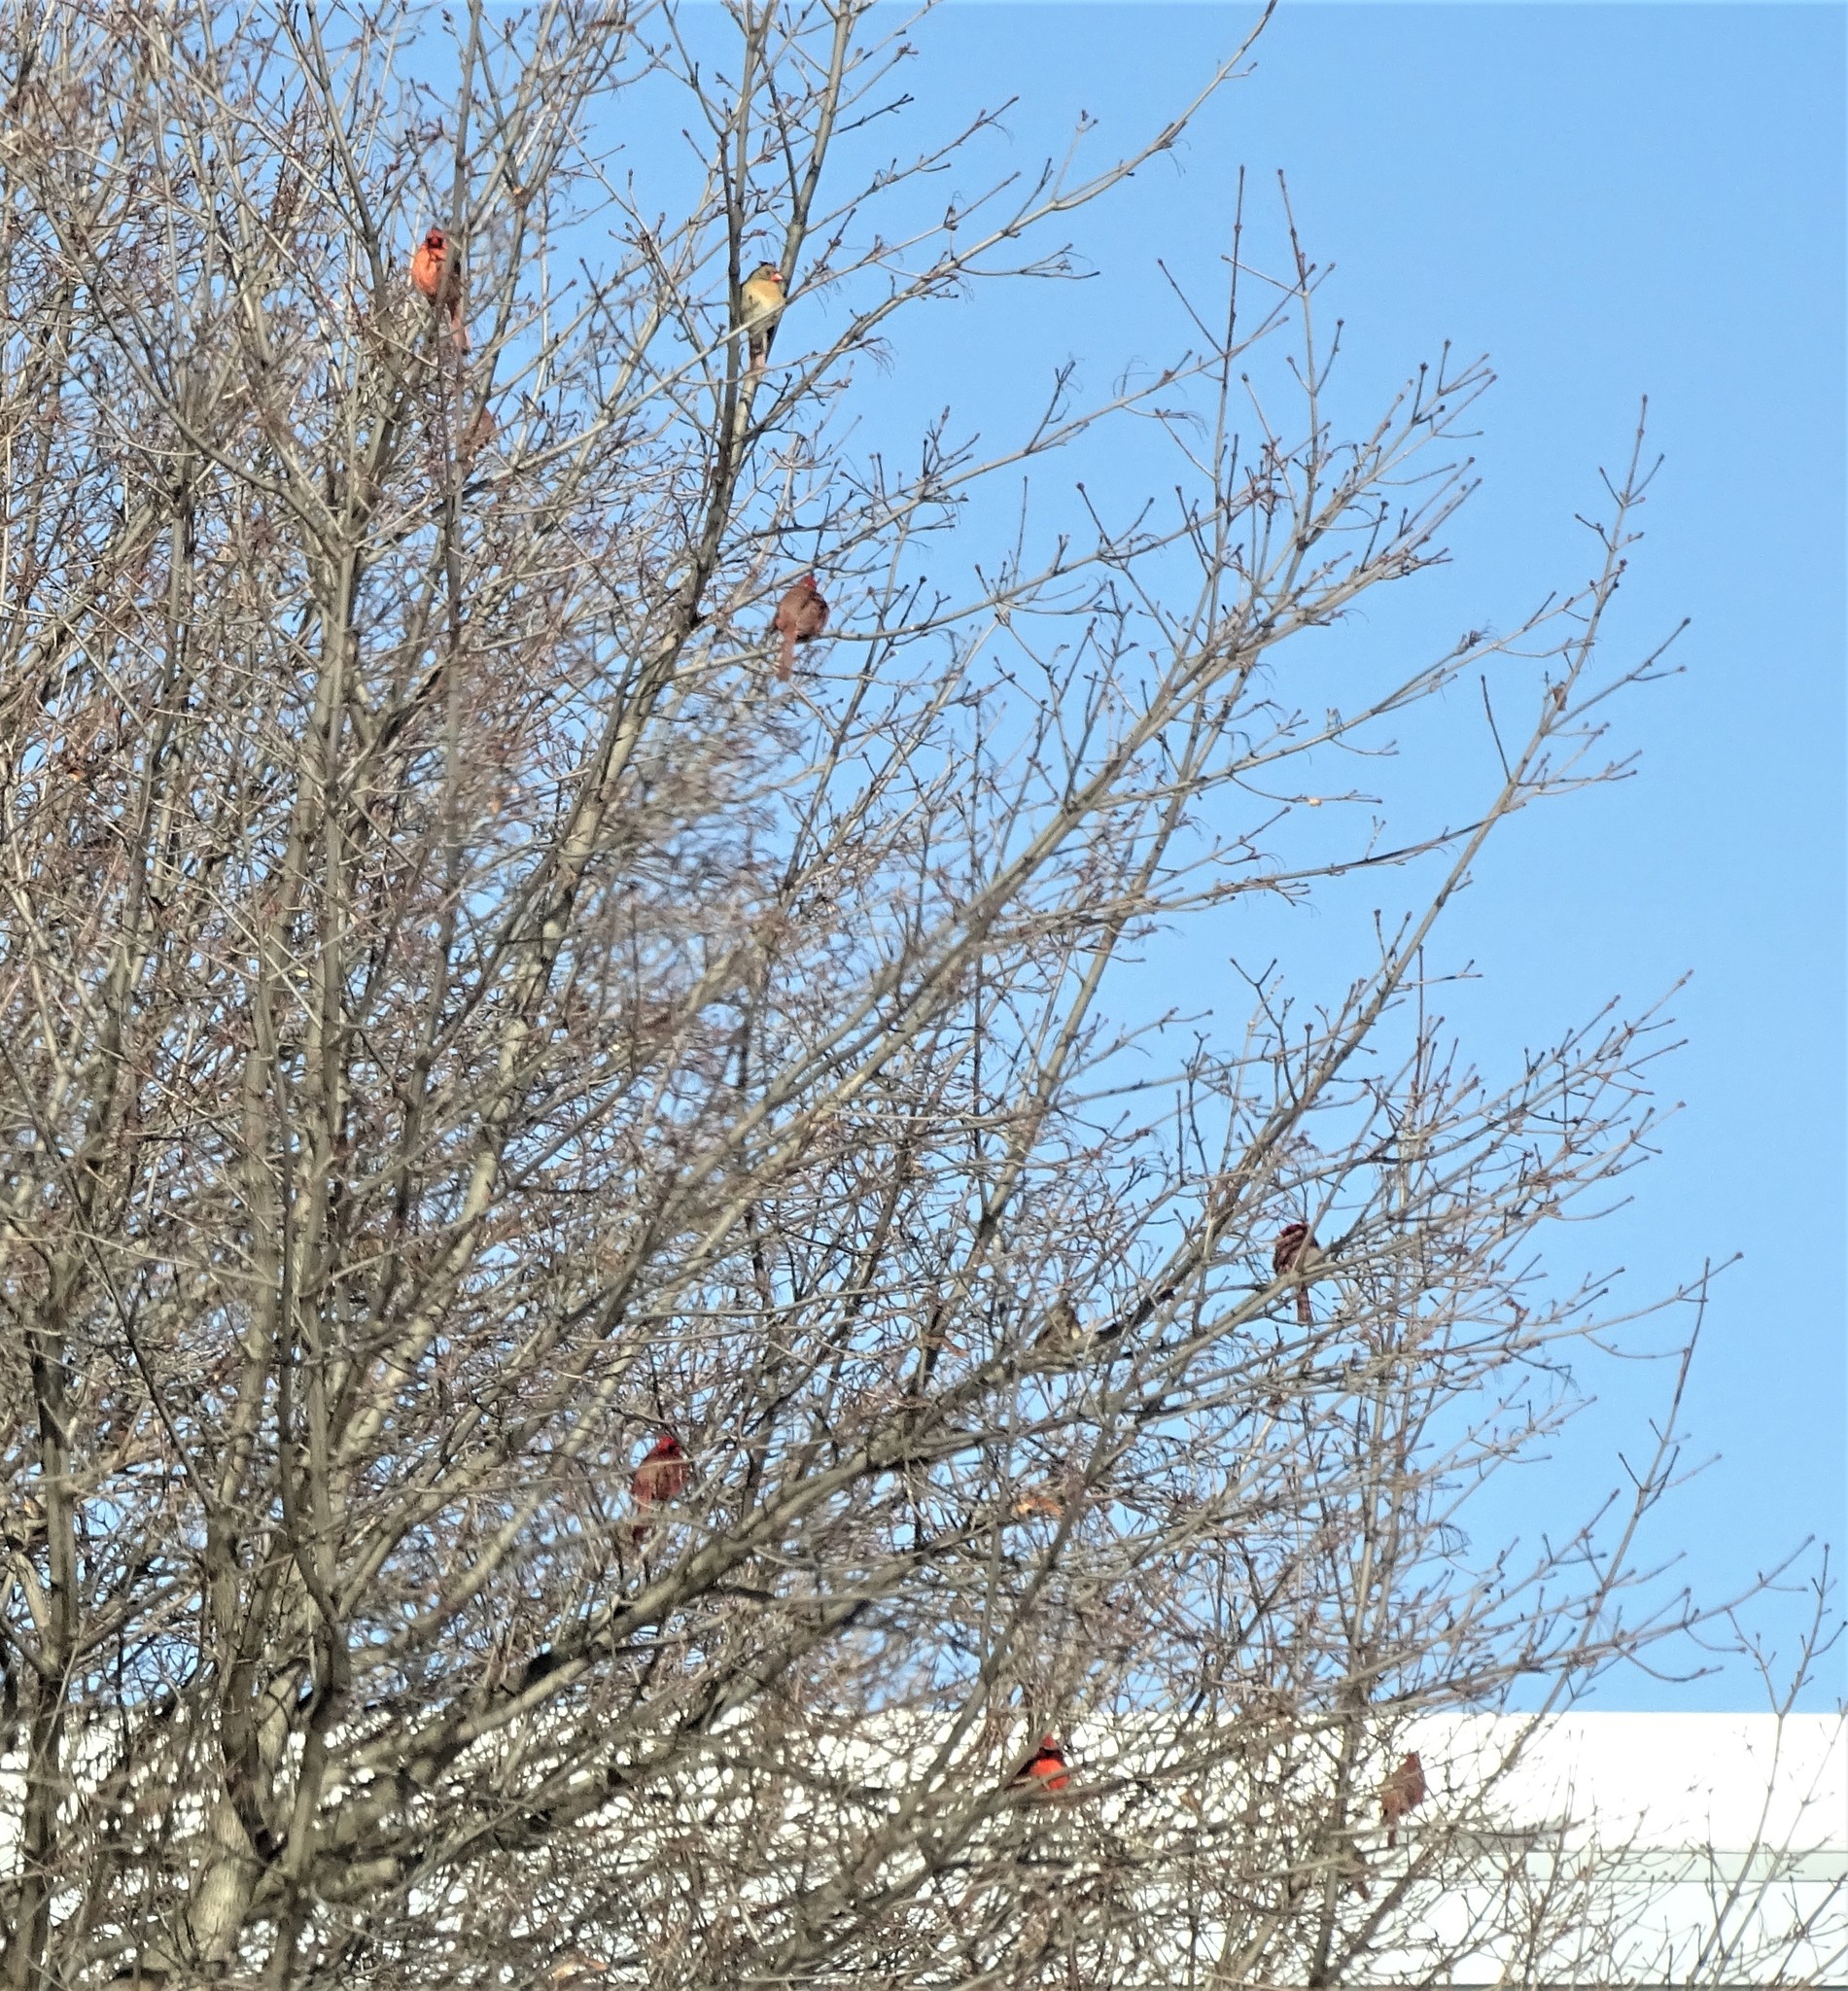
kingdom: Animalia
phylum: Chordata
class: Aves
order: Passeriformes
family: Cardinalidae
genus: Cardinalis
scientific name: Cardinalis cardinalis
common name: Northern cardinal
